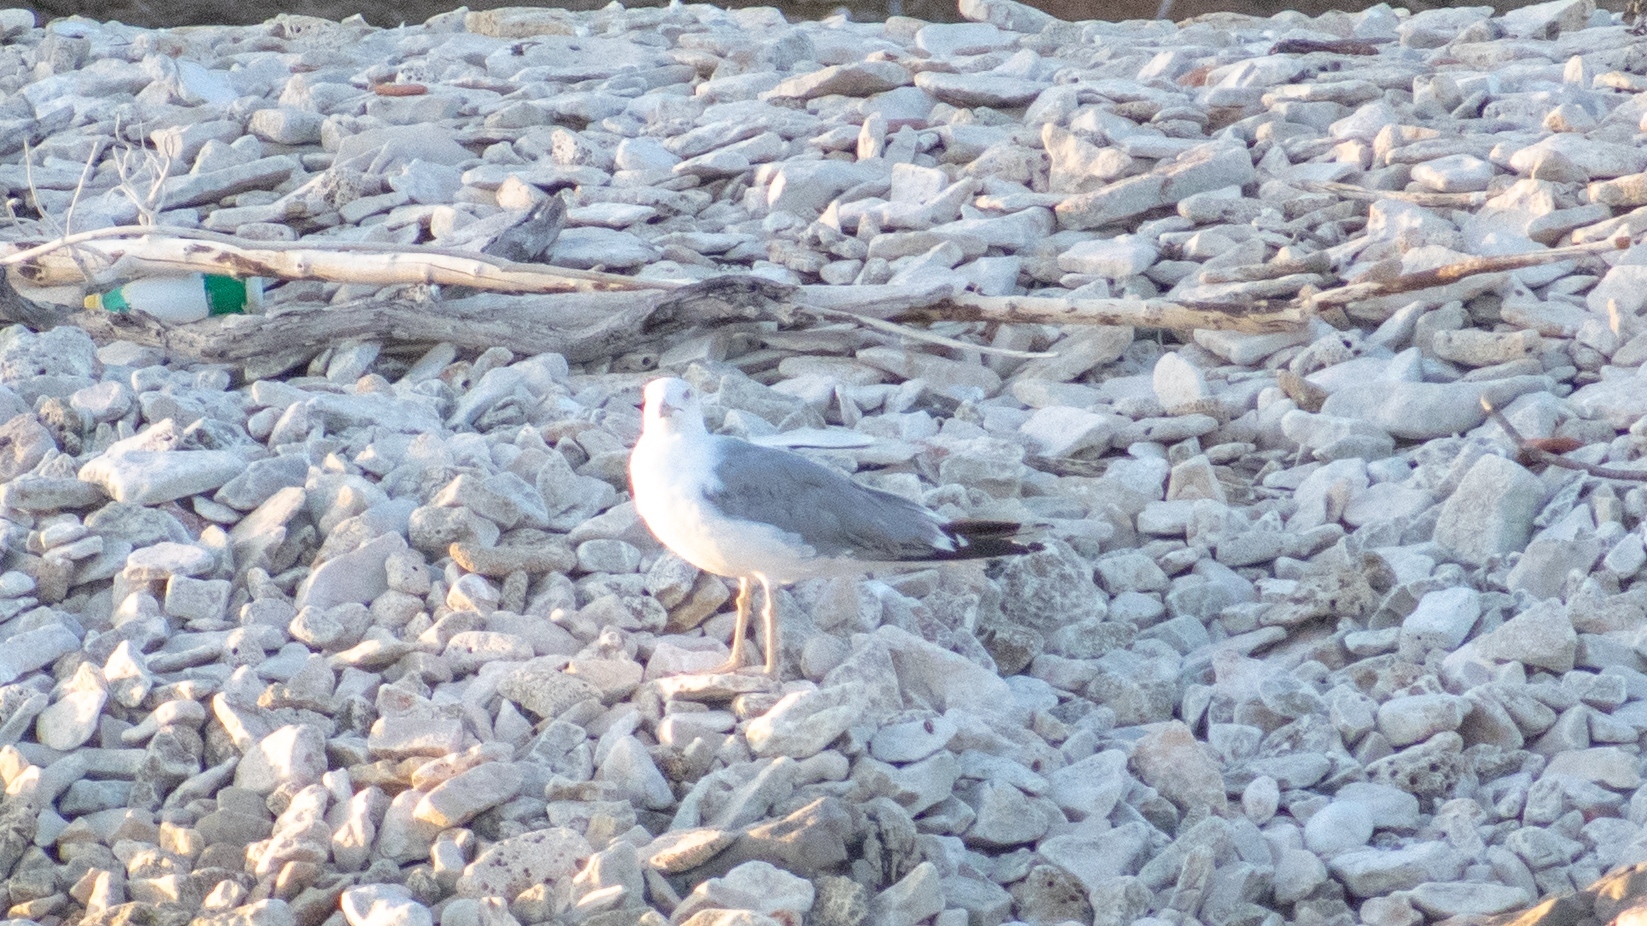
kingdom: Animalia
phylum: Chordata
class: Aves
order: Charadriiformes
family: Laridae
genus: Larus
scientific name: Larus michahellis
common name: Yellow-legged gull
